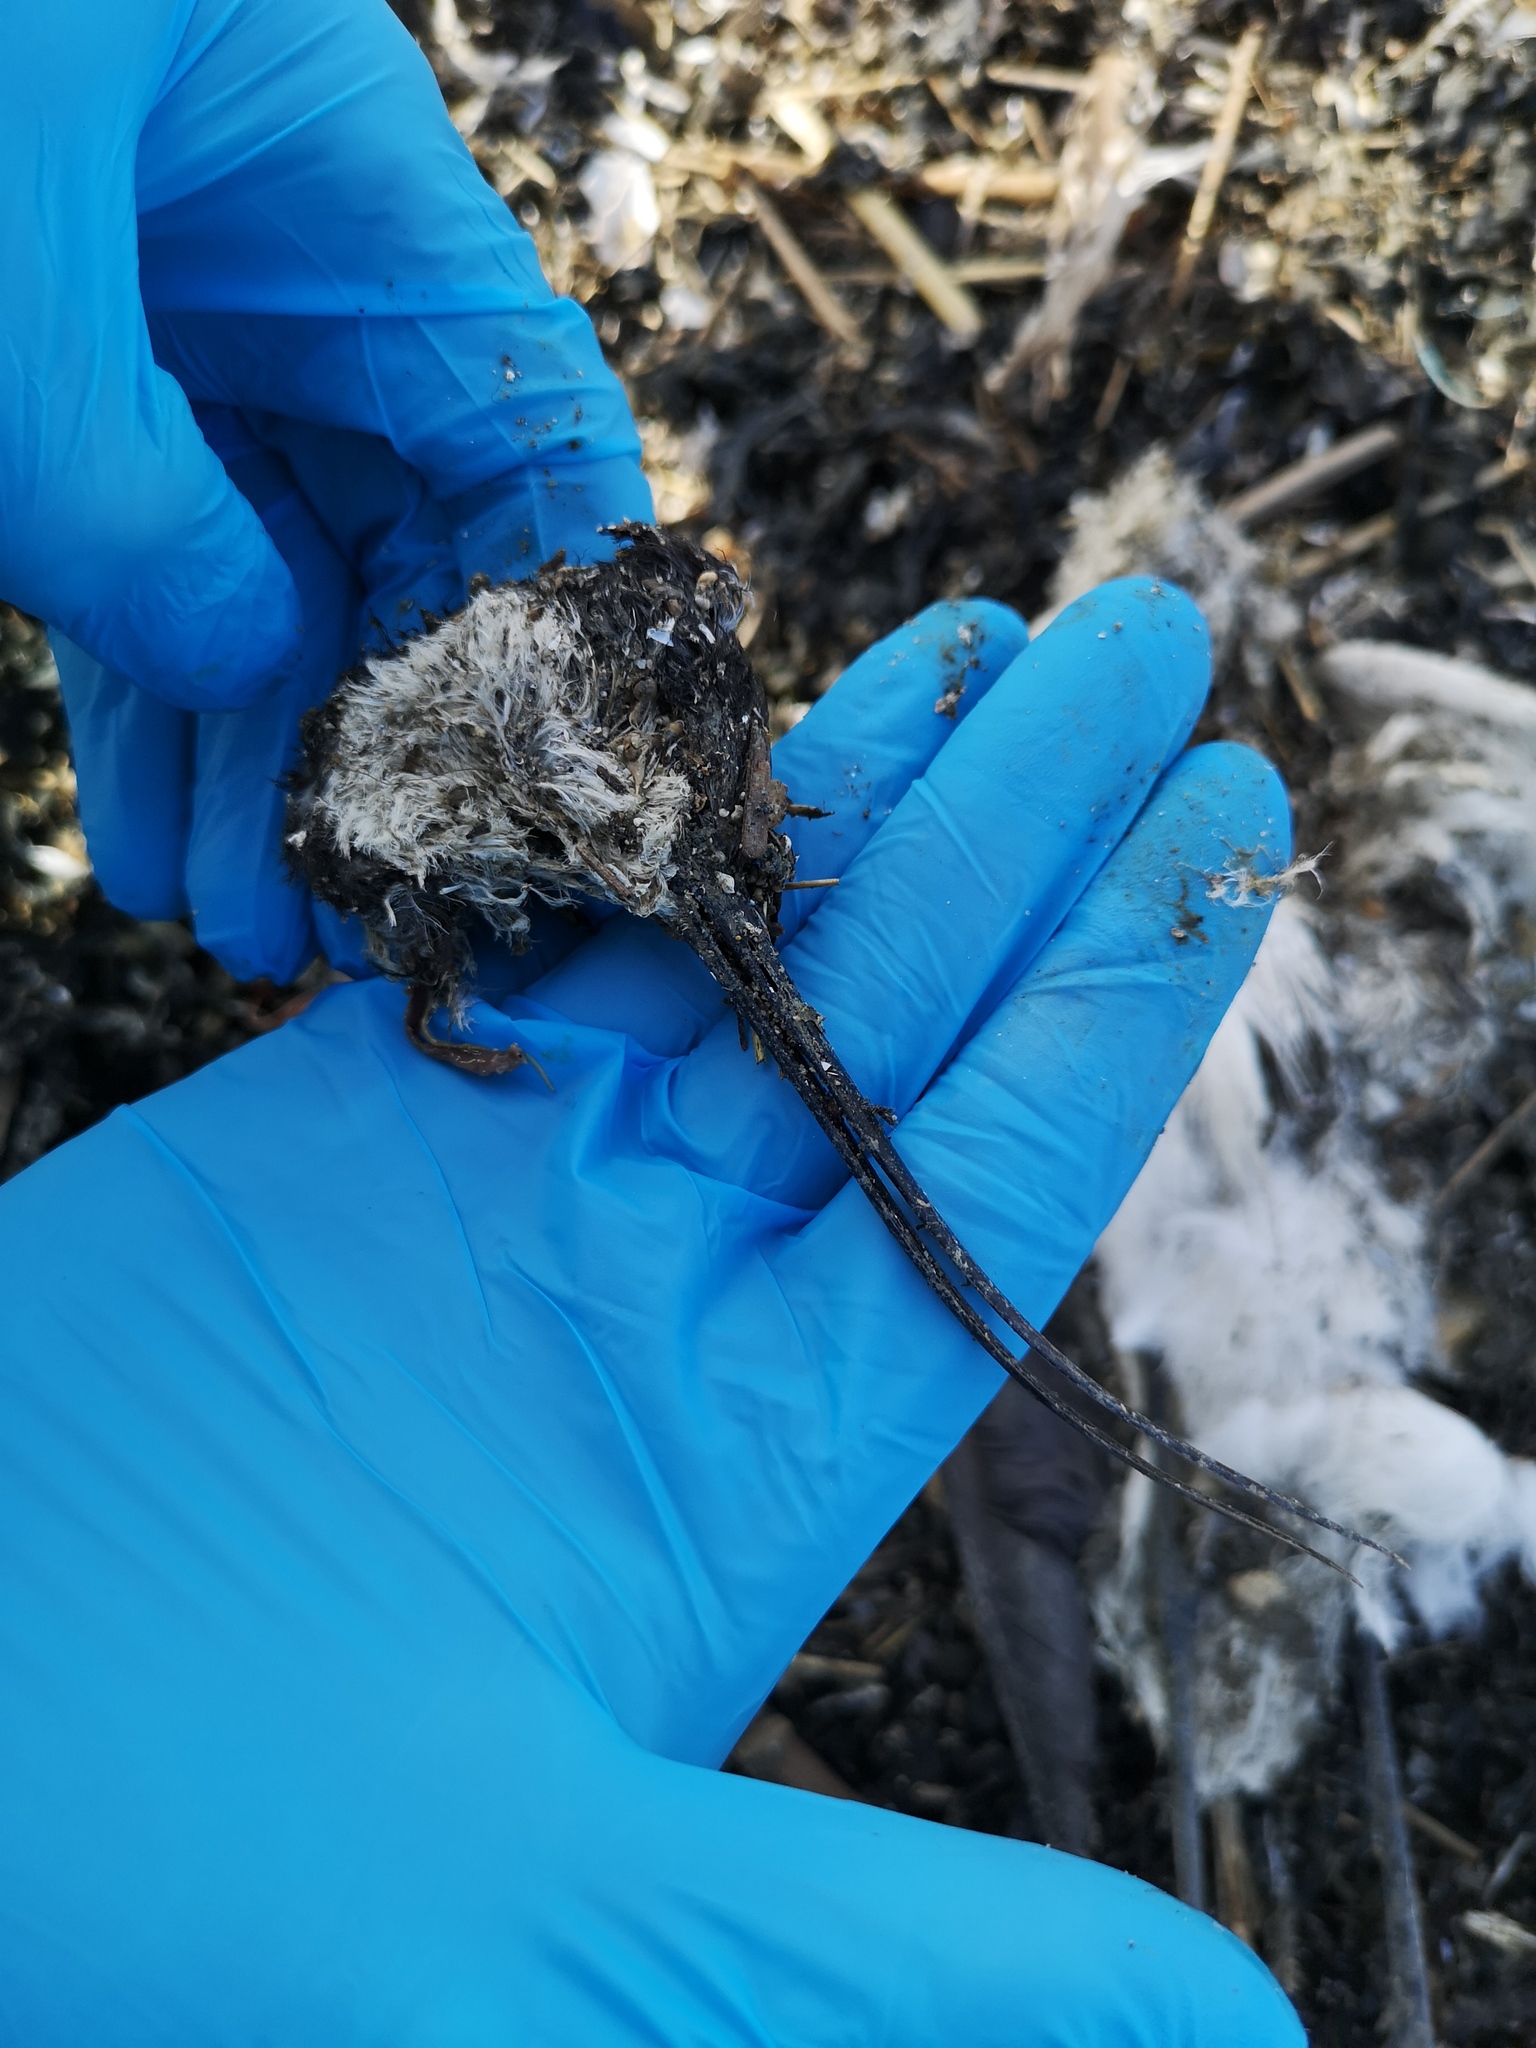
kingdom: Animalia
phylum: Chordata
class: Aves
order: Charadriiformes
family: Recurvirostridae
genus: Recurvirostra
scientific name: Recurvirostra avosetta
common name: Pied avocet
